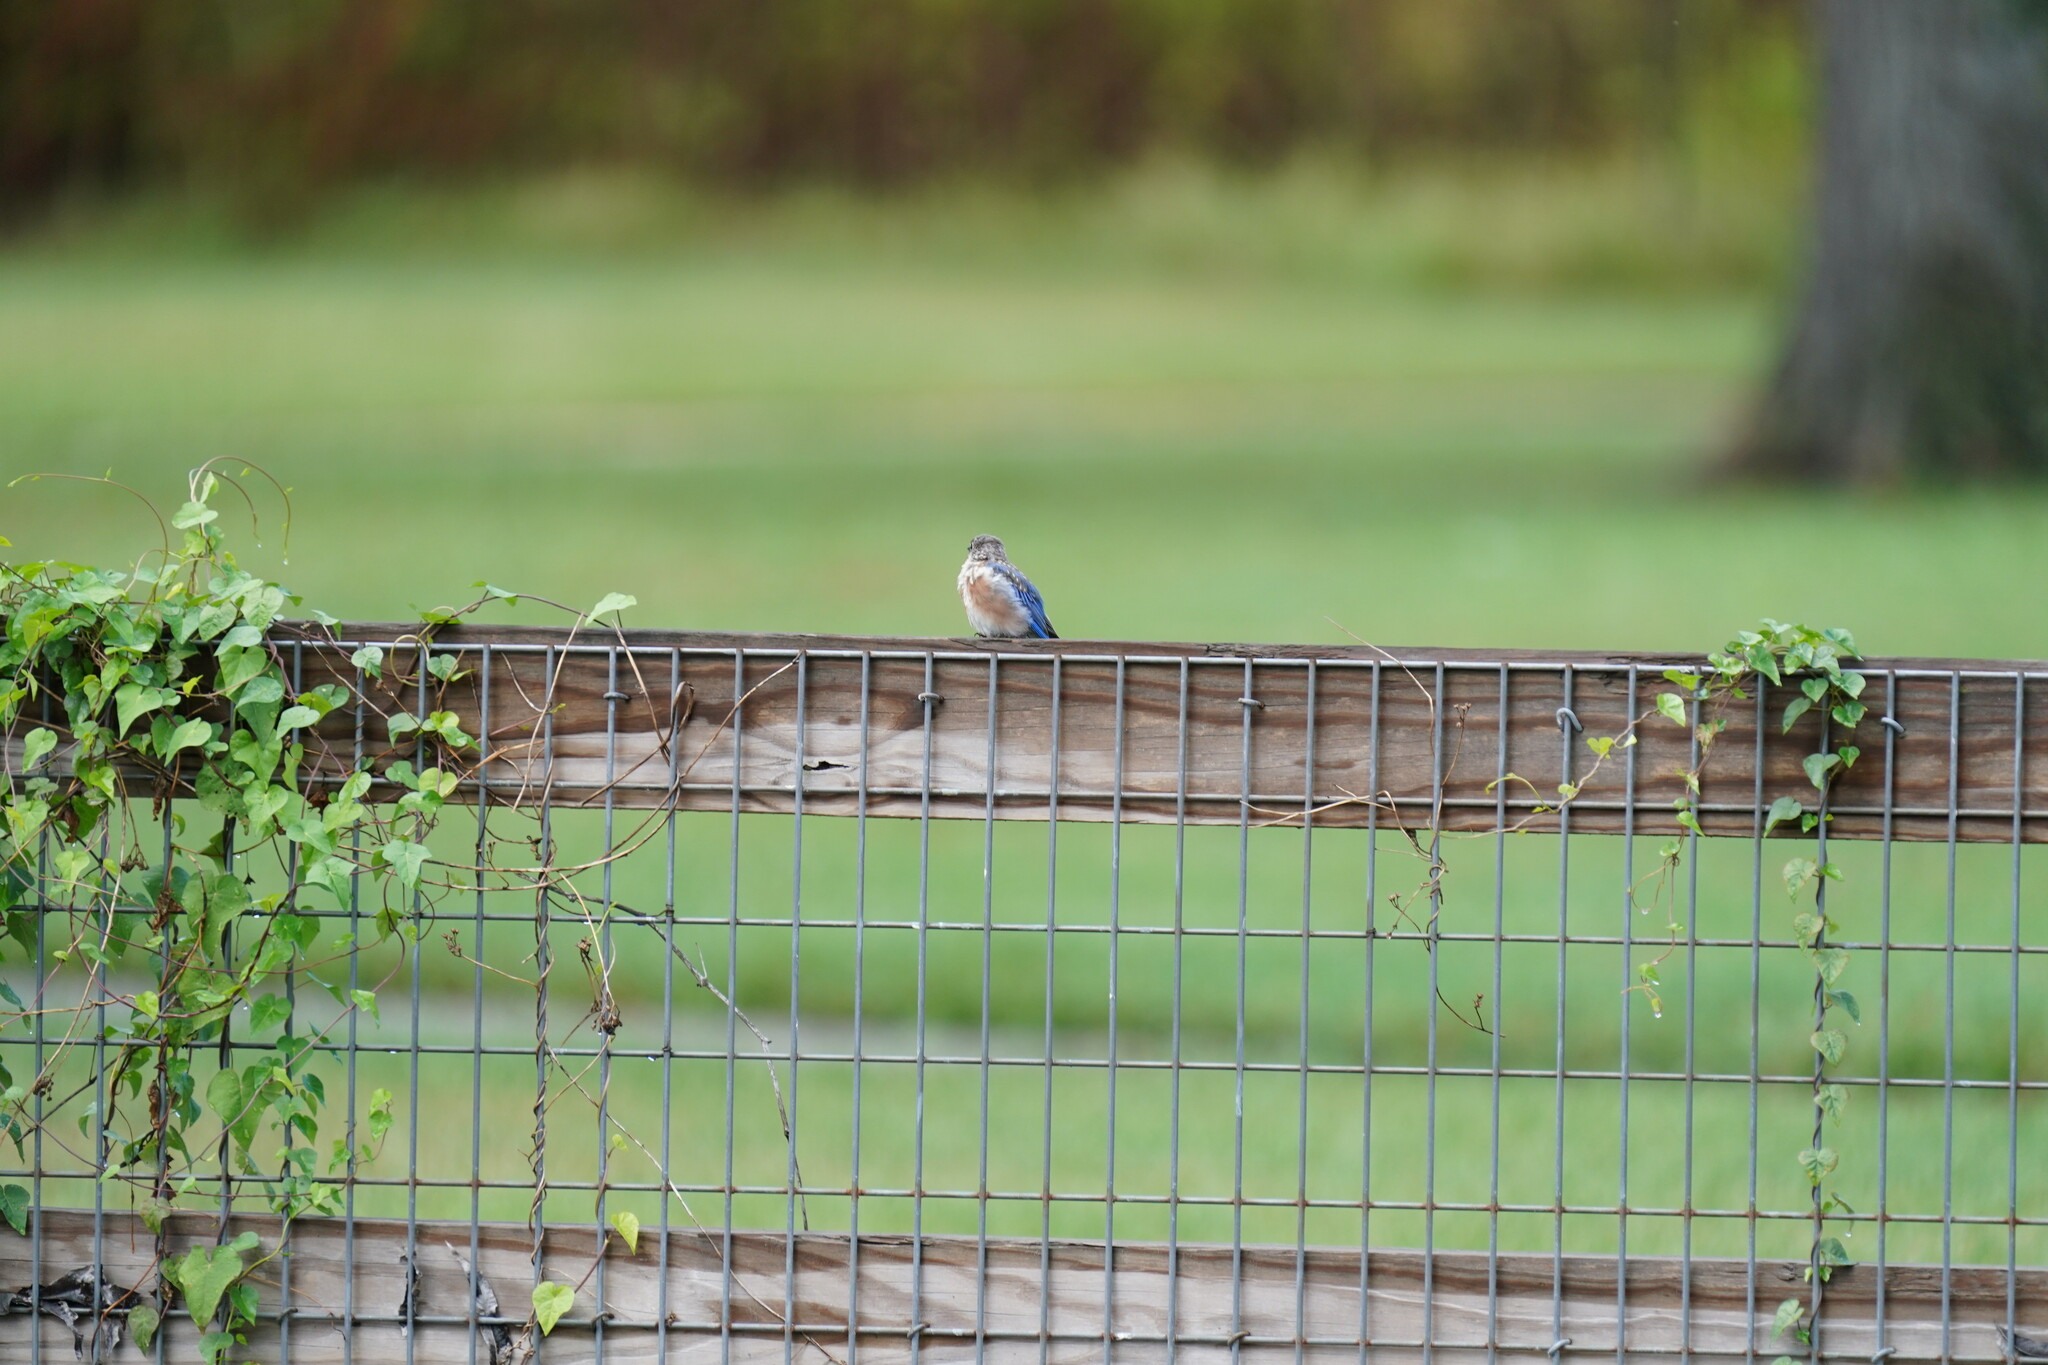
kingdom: Animalia
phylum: Chordata
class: Aves
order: Passeriformes
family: Turdidae
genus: Sialia
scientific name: Sialia sialis
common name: Eastern bluebird
